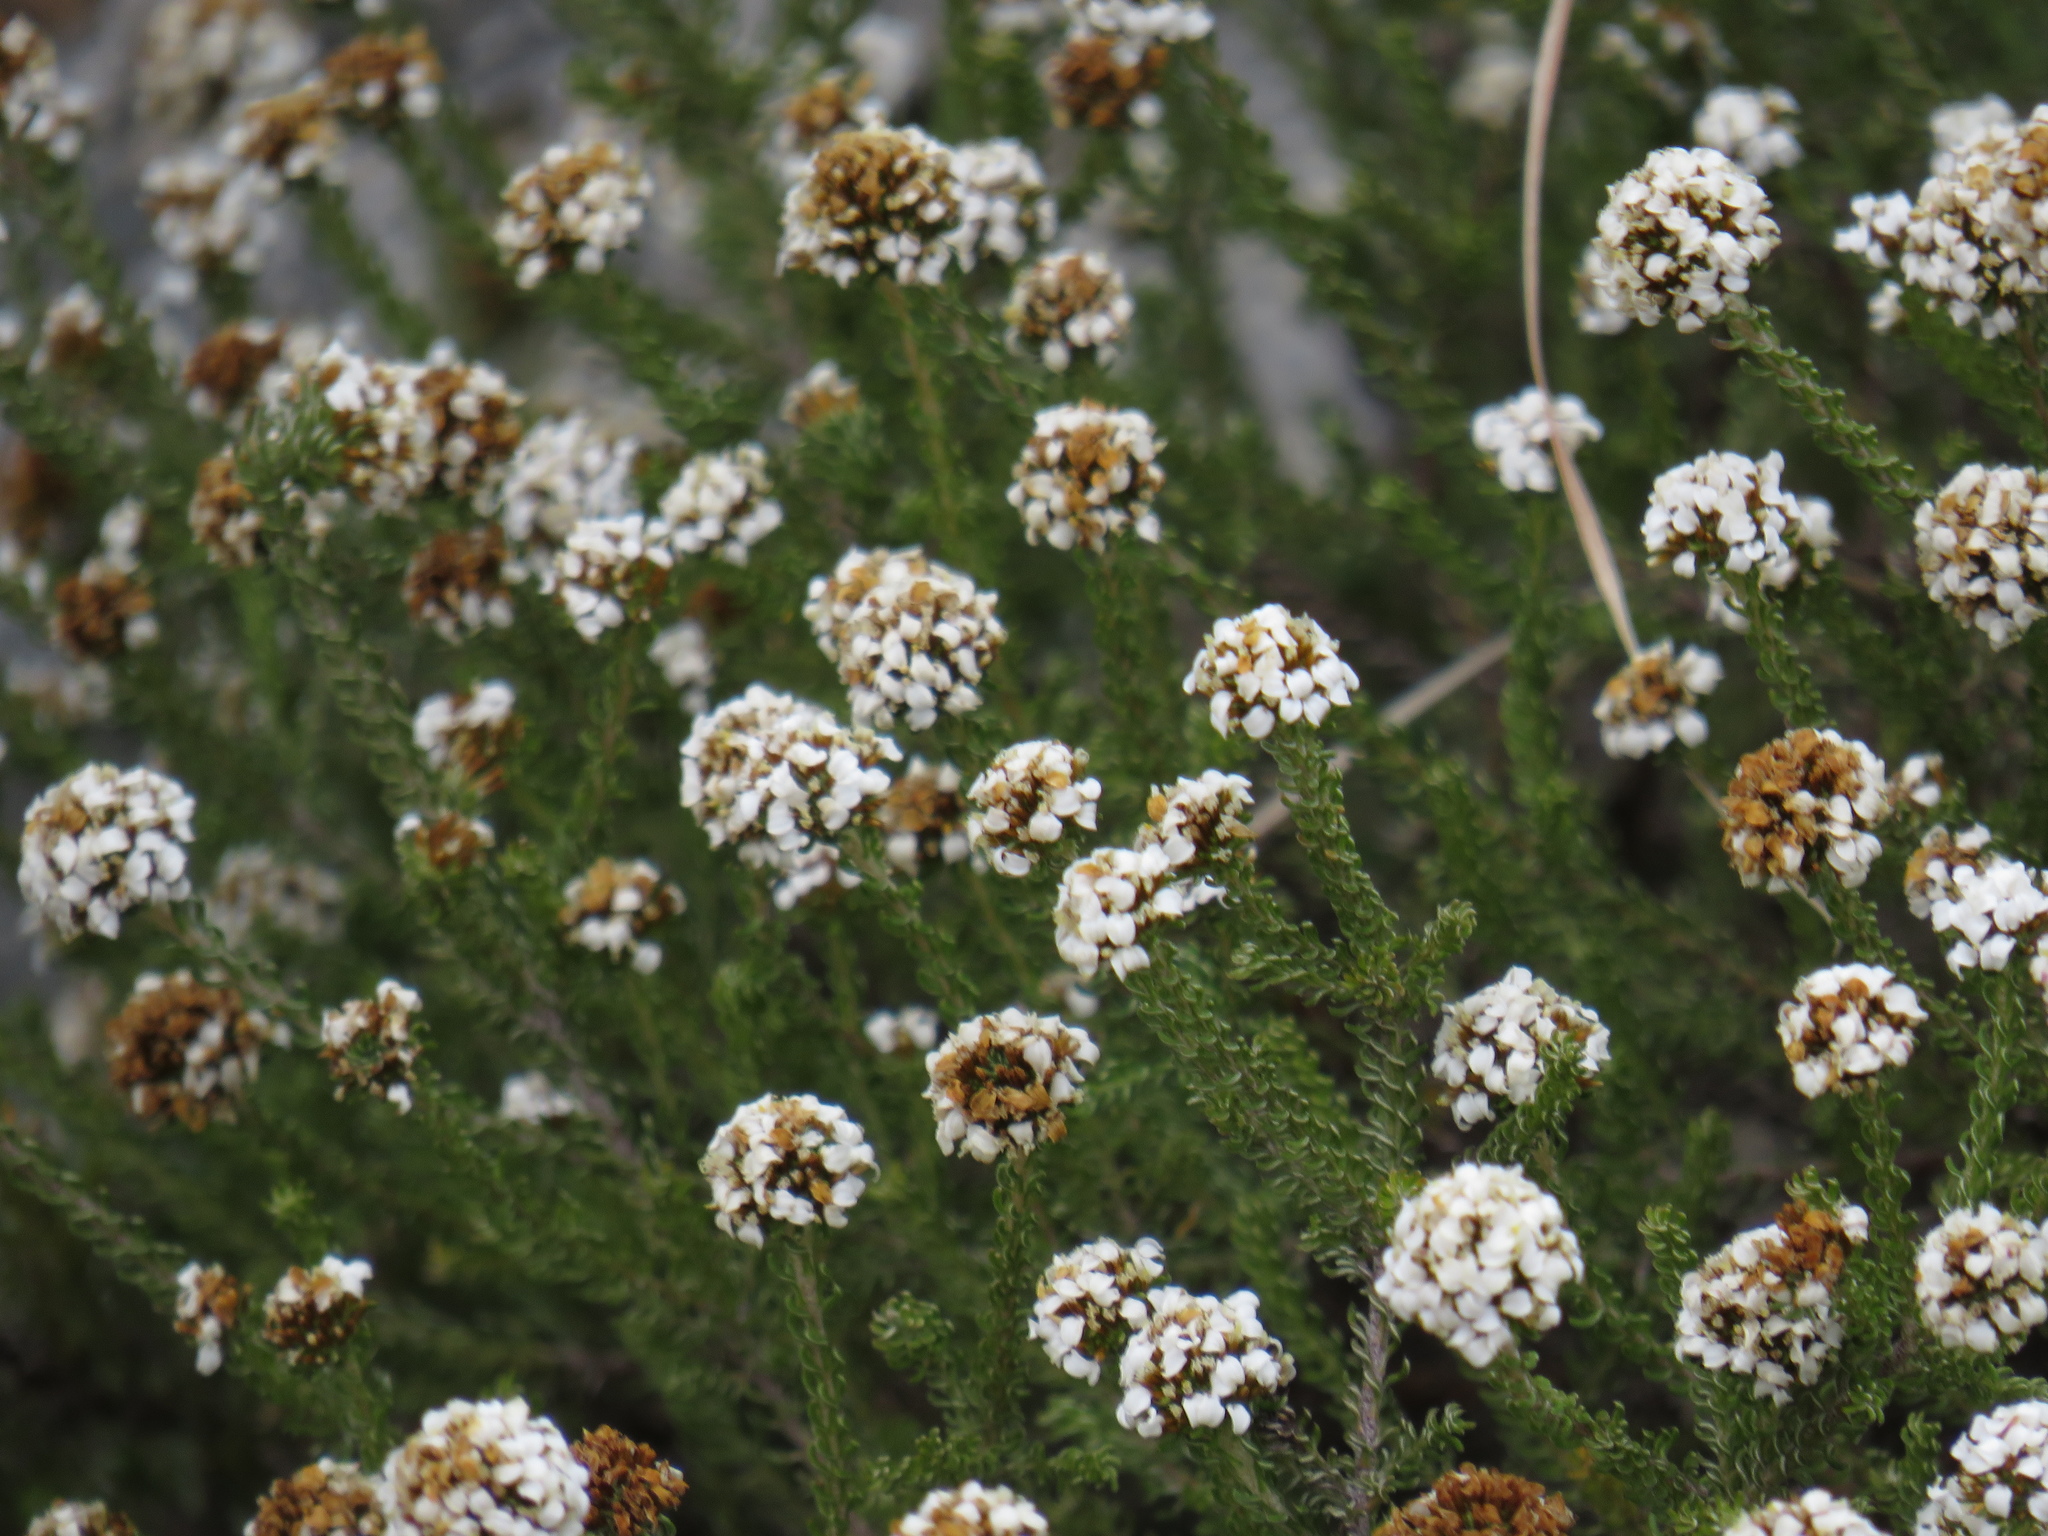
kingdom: Plantae
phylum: Tracheophyta
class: Magnoliopsida
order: Asterales
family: Asteraceae
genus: Disparago
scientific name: Disparago anomala
